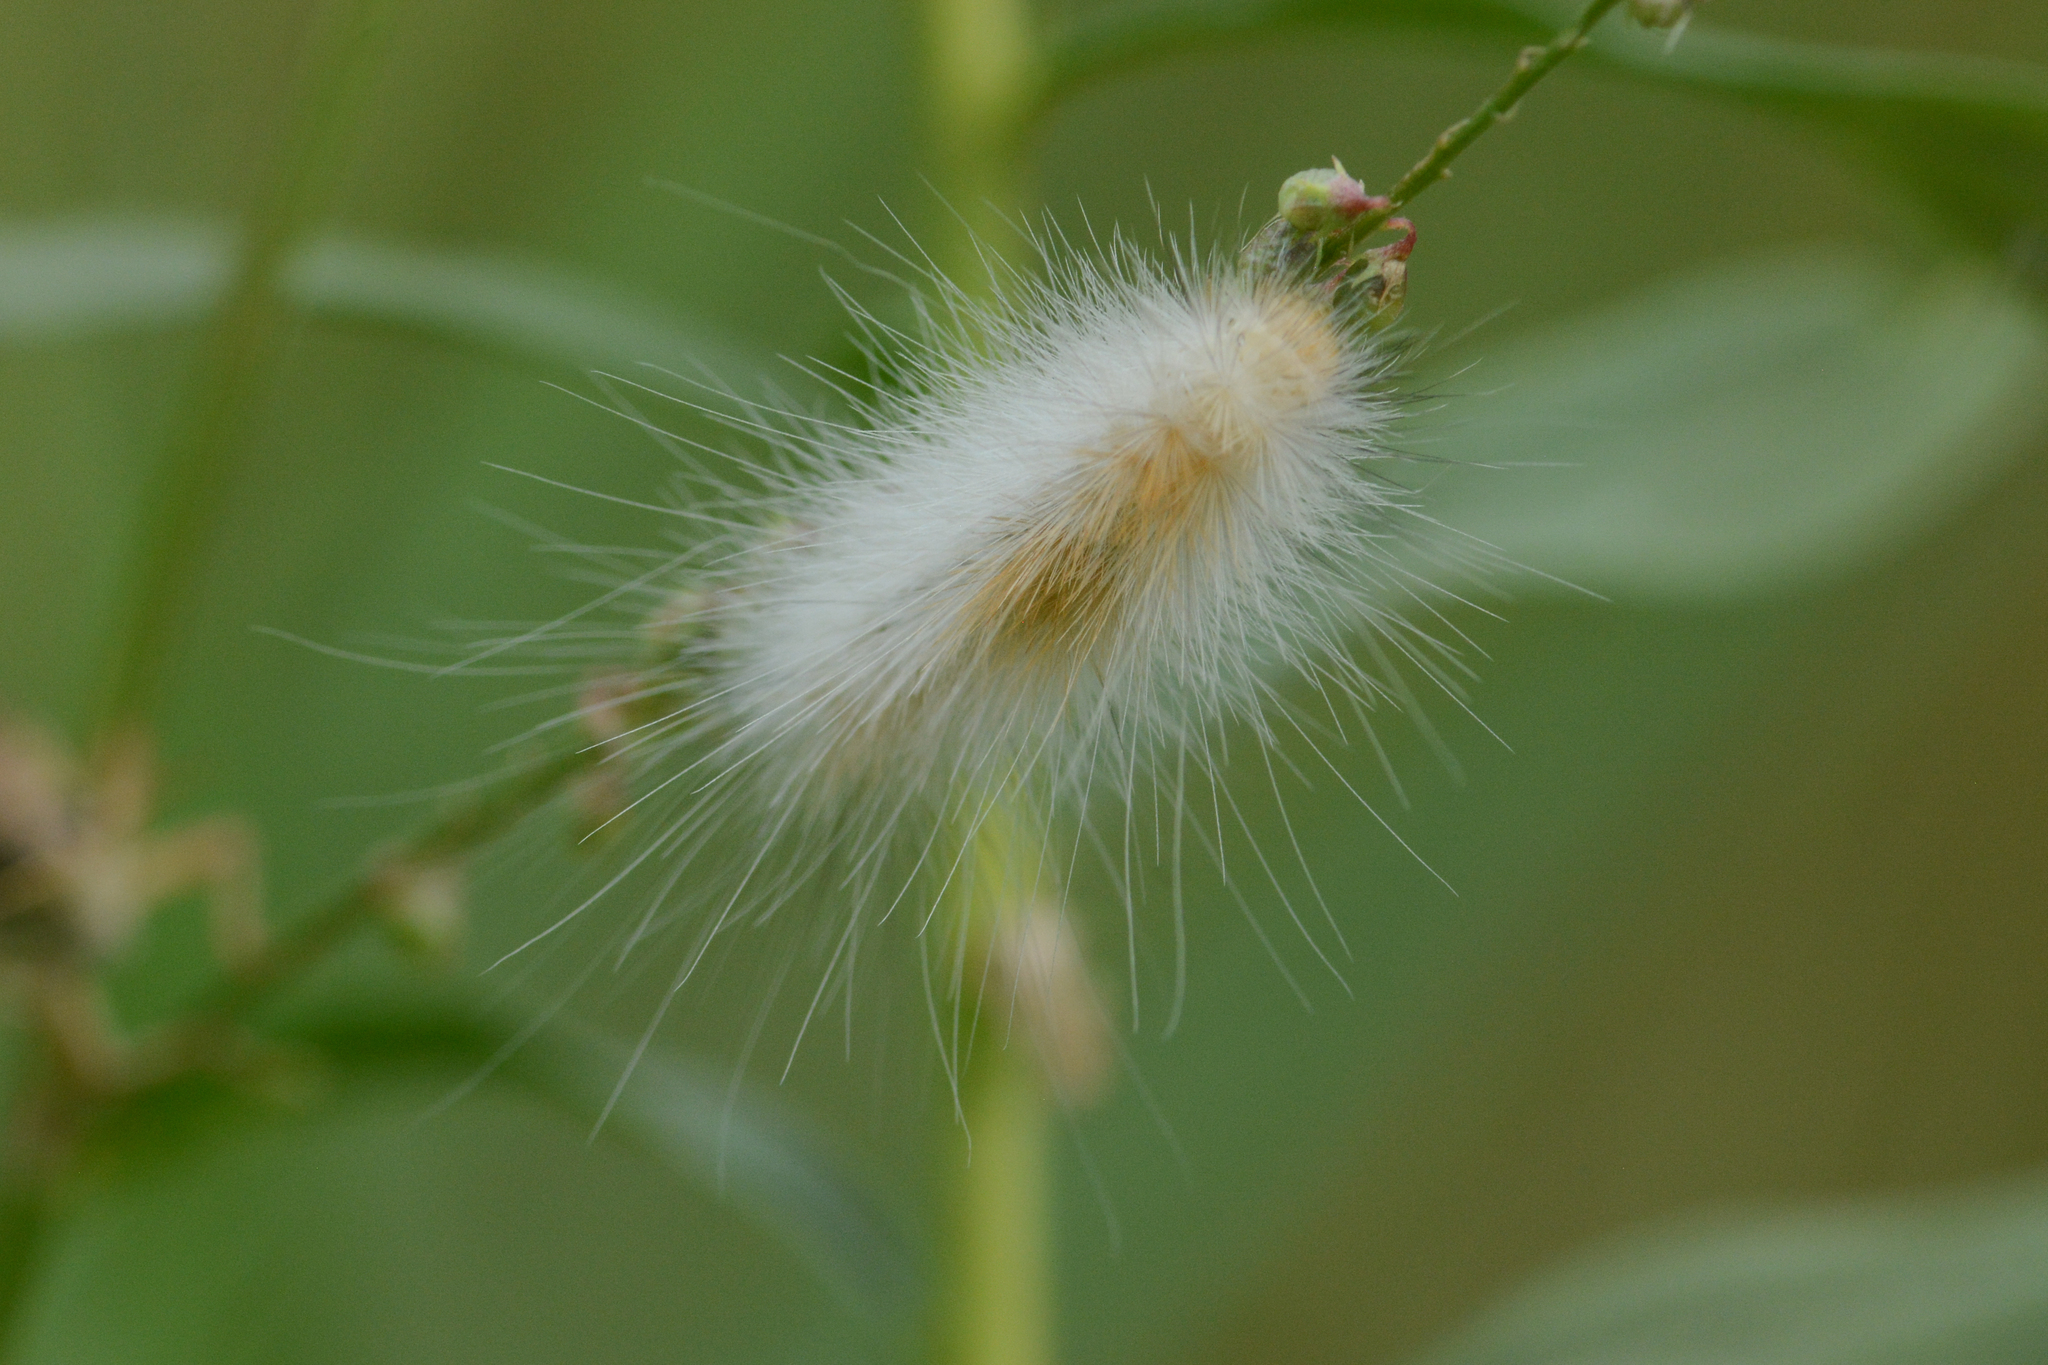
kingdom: Animalia
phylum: Arthropoda
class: Insecta
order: Lepidoptera
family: Erebidae
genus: Spilosoma
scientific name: Spilosoma virginica
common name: Virginia tiger moth
